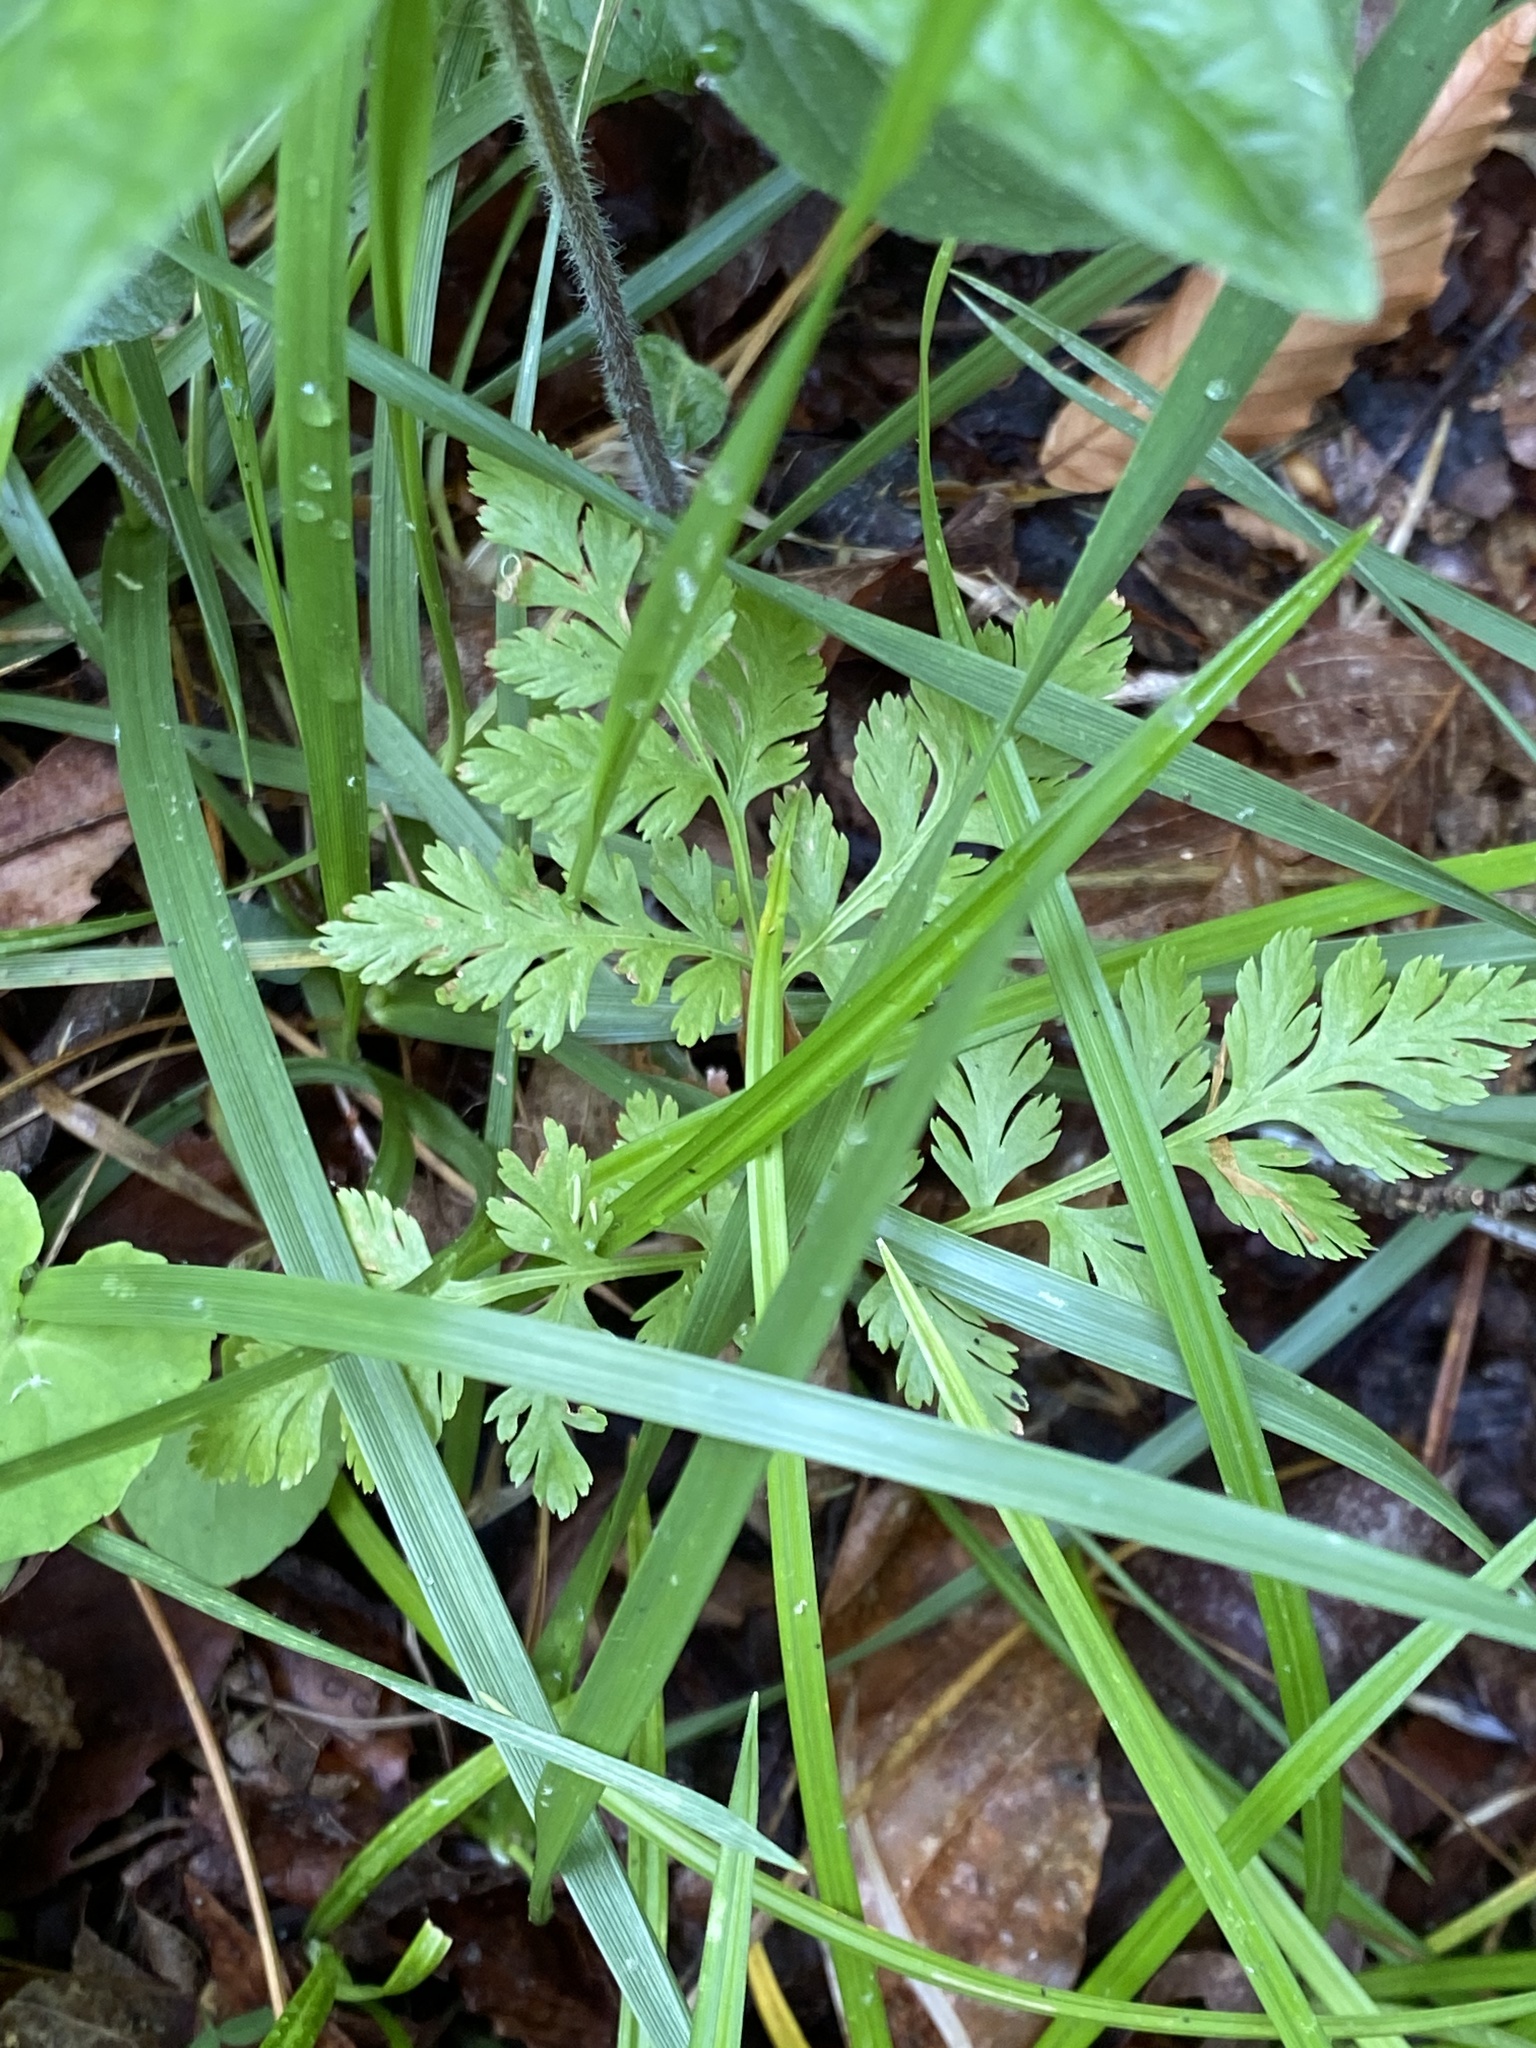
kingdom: Plantae
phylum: Tracheophyta
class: Polypodiopsida
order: Ophioglossales
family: Ophioglossaceae
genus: Botrypus
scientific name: Botrypus virginianus
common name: Common grapefern
